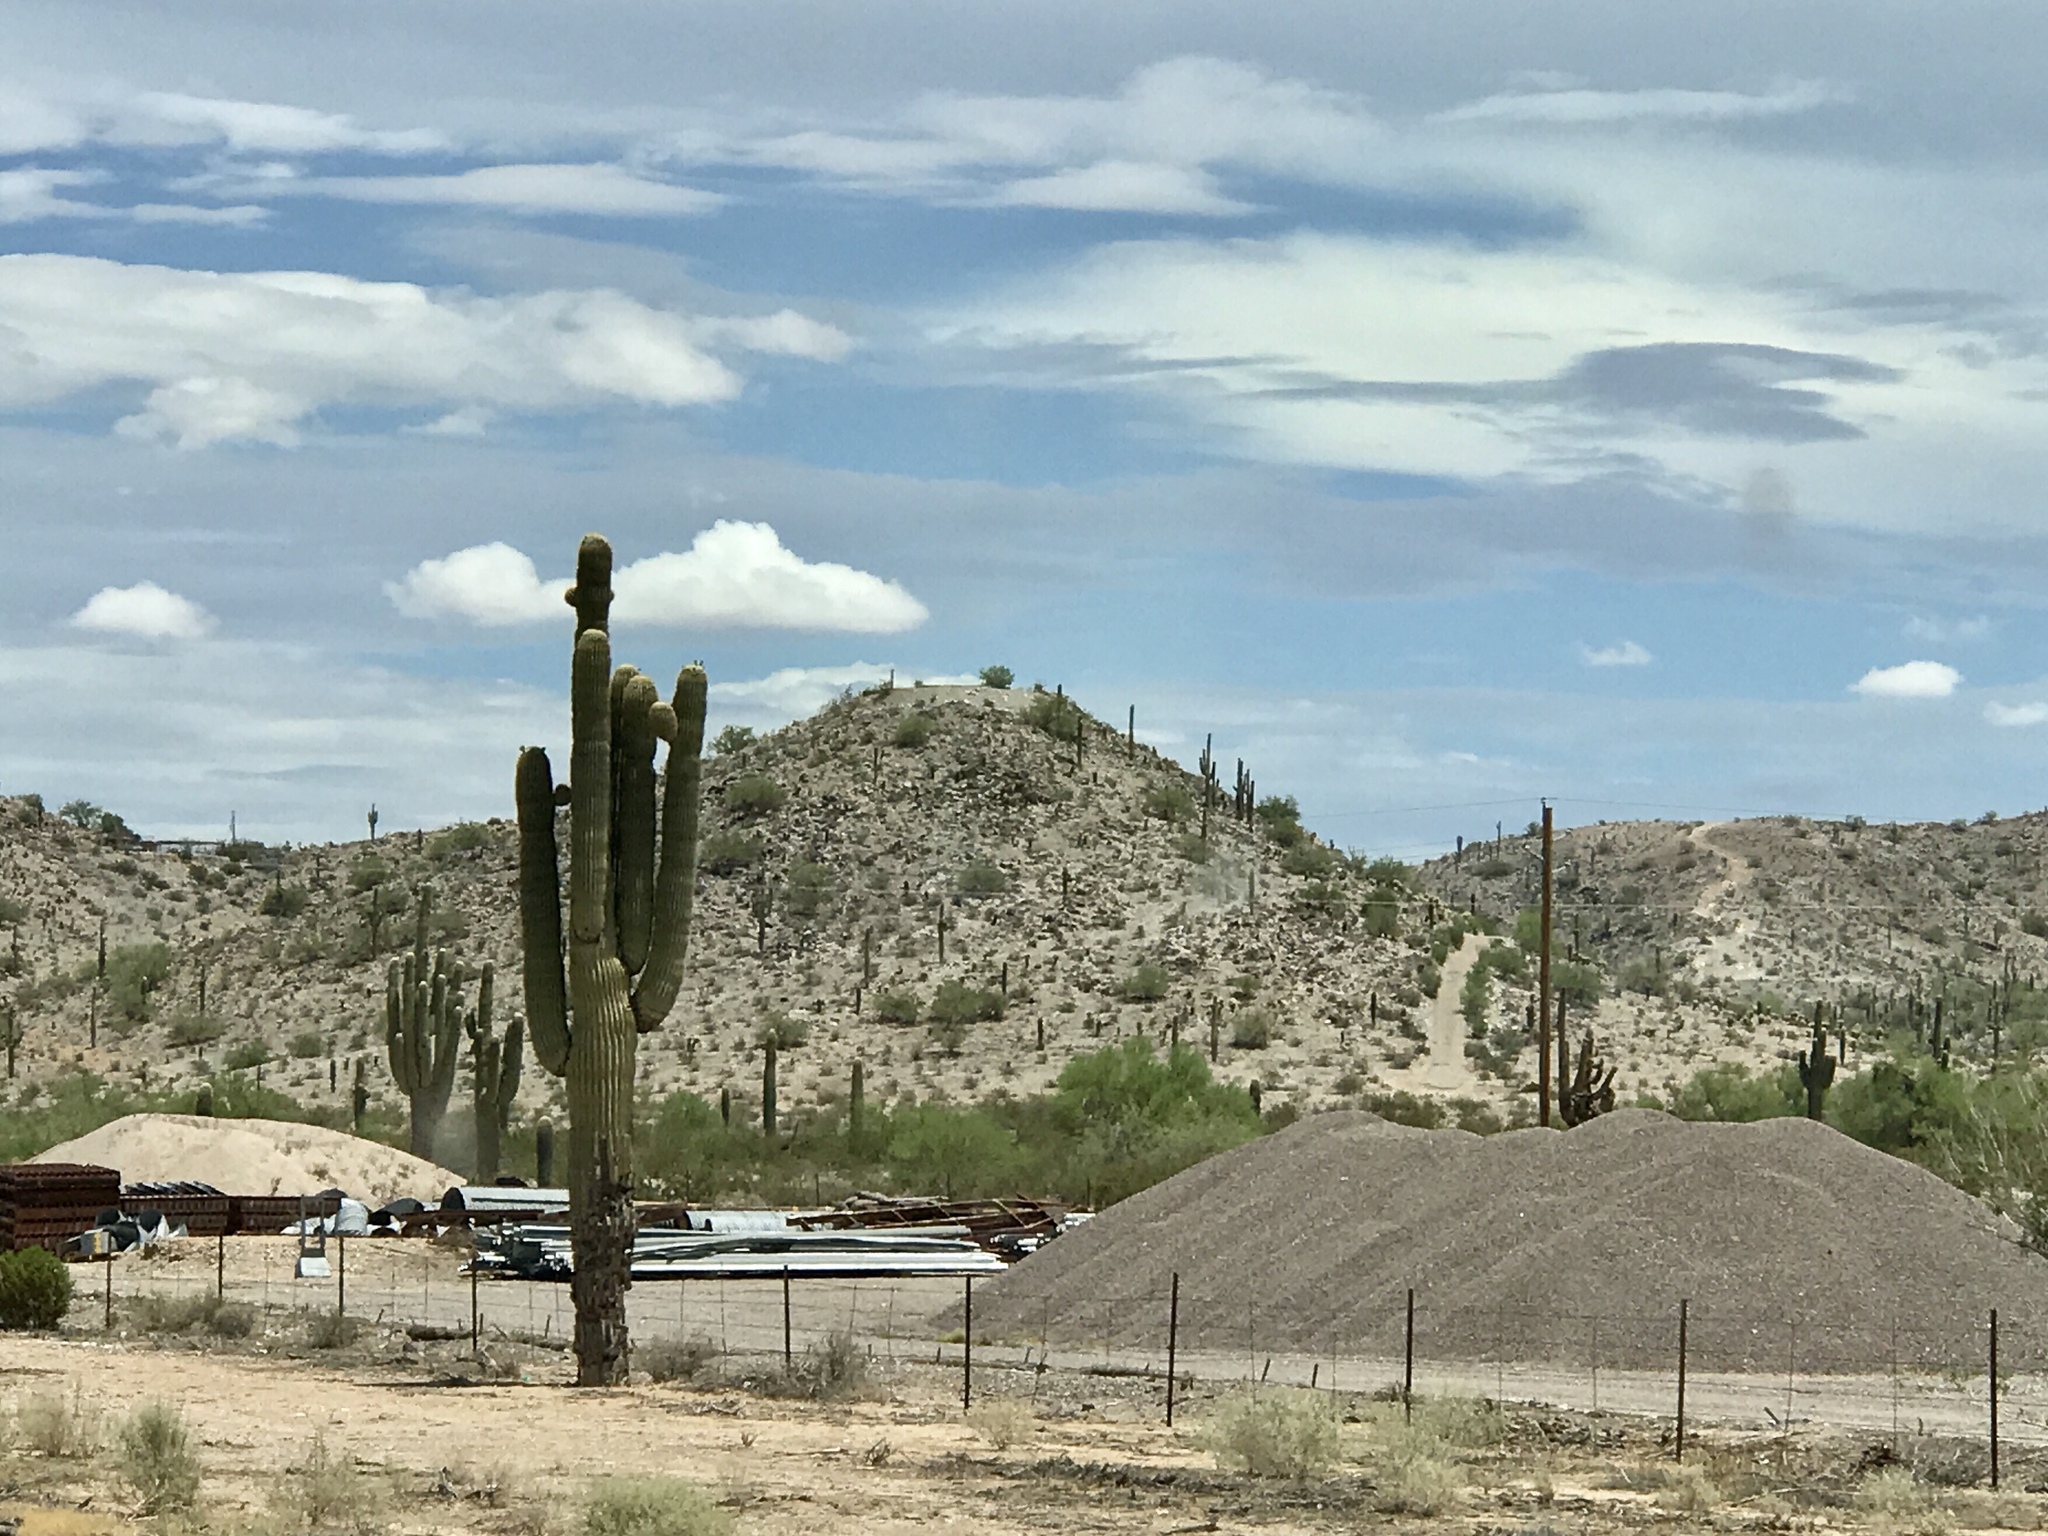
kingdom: Plantae
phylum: Tracheophyta
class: Magnoliopsida
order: Caryophyllales
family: Cactaceae
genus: Carnegiea
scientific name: Carnegiea gigantea
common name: Saguaro
